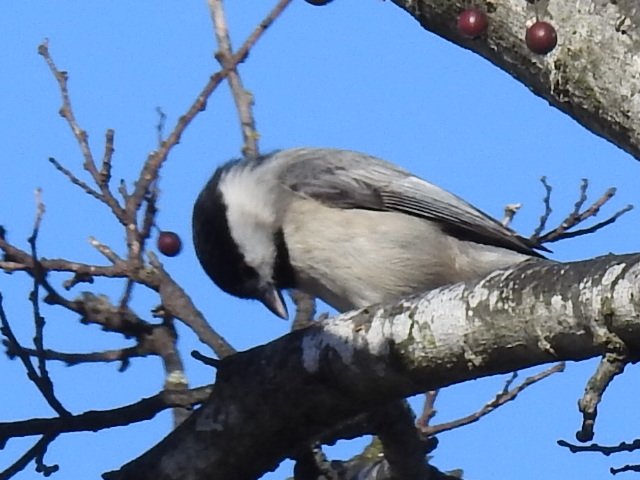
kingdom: Animalia
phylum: Chordata
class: Aves
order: Passeriformes
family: Paridae
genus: Poecile
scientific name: Poecile carolinensis
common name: Carolina chickadee
